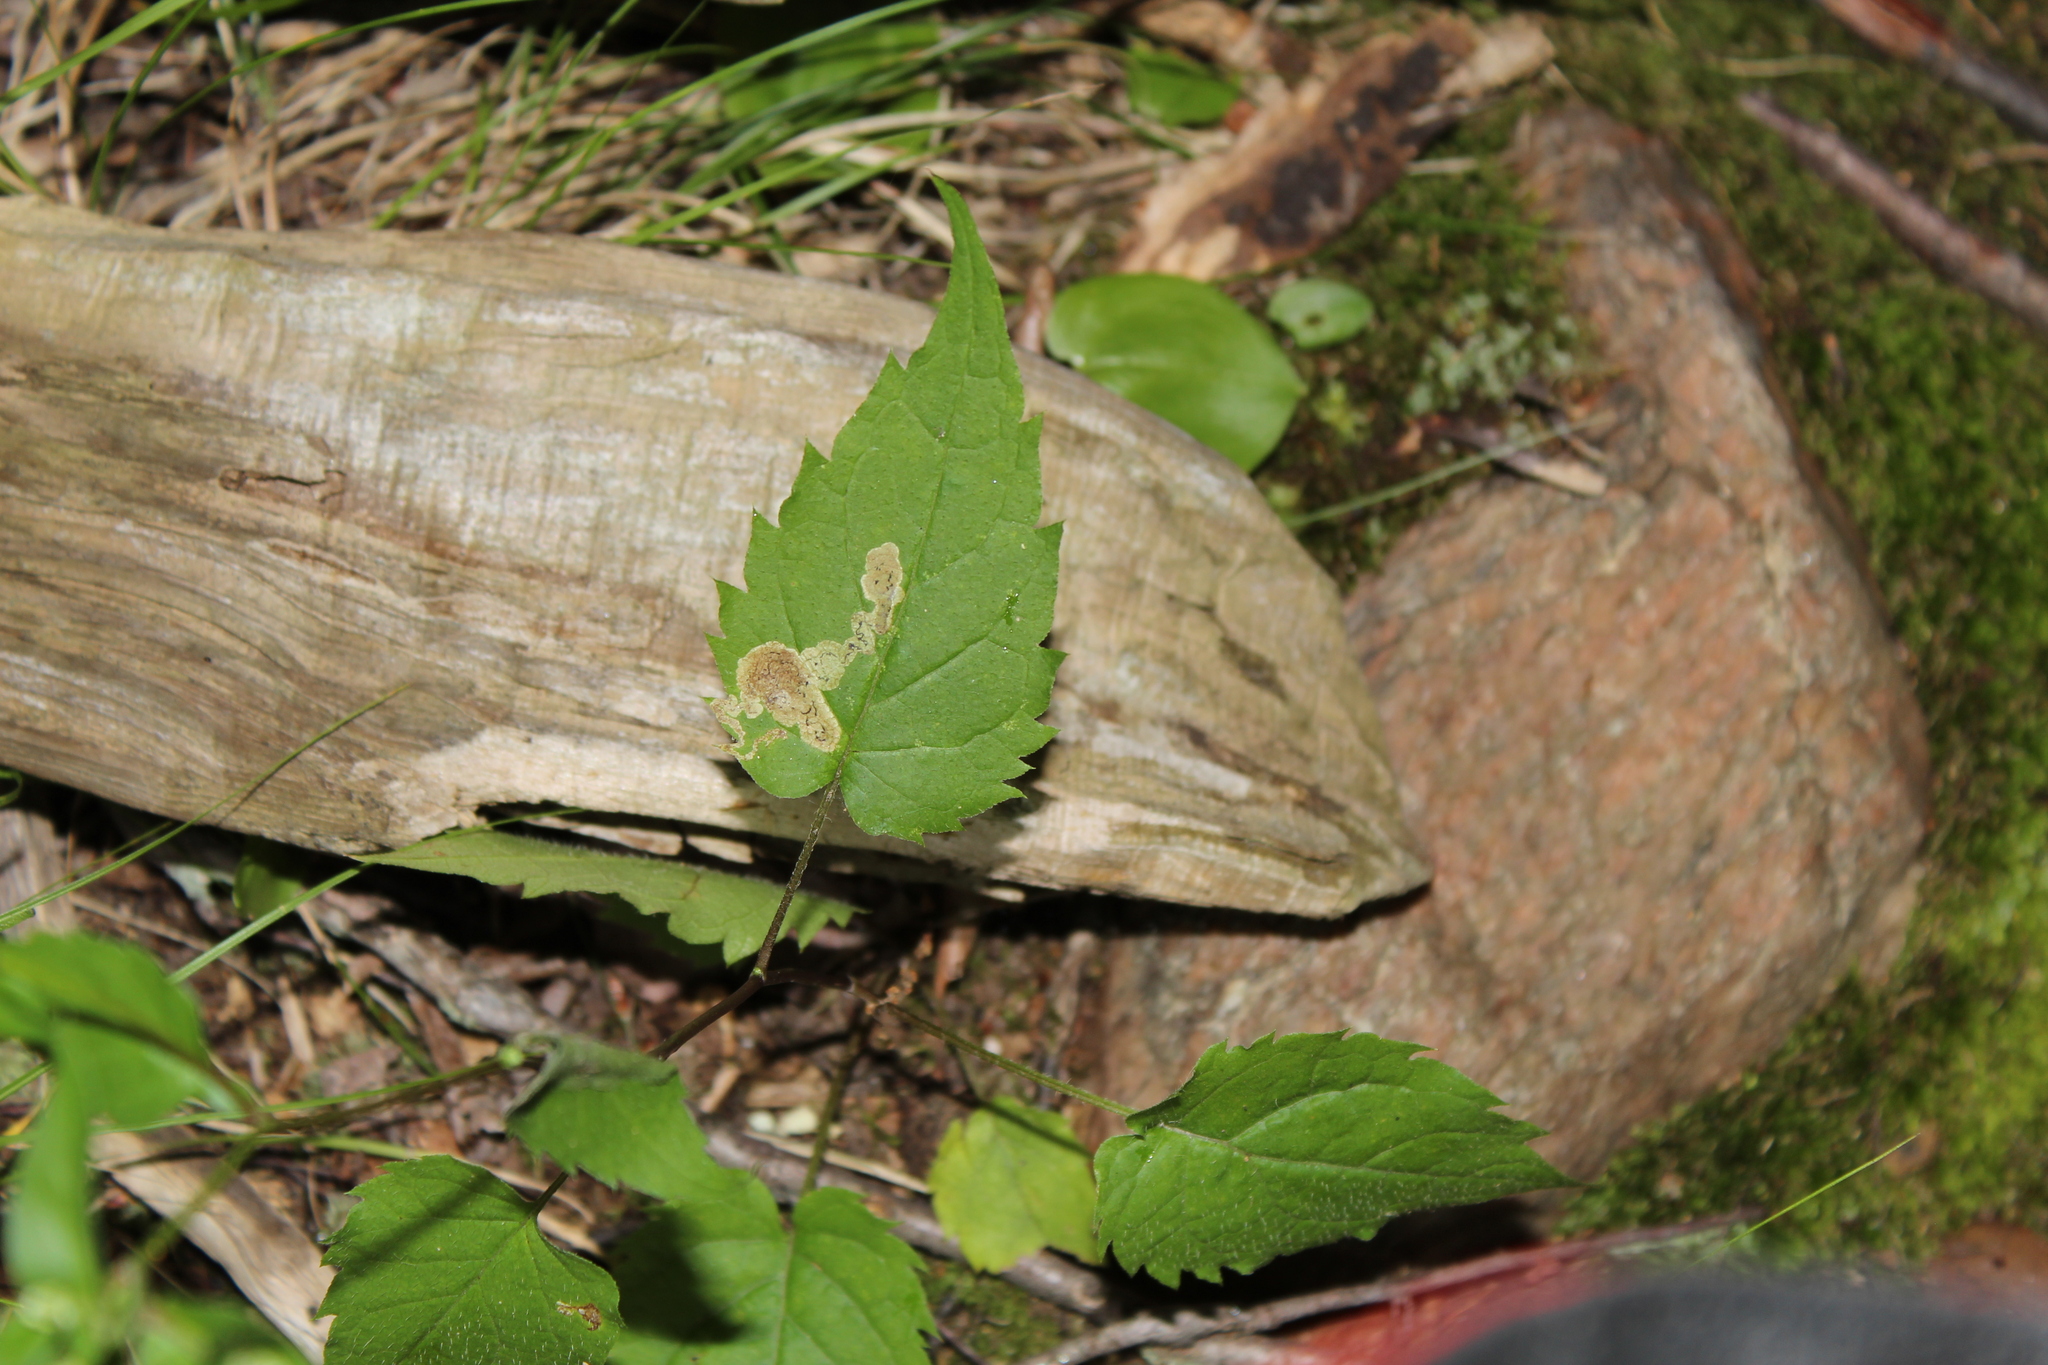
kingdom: Animalia
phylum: Arthropoda
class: Insecta
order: Diptera
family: Agromyzidae
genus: Liriomyza
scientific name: Liriomyza limopsis
